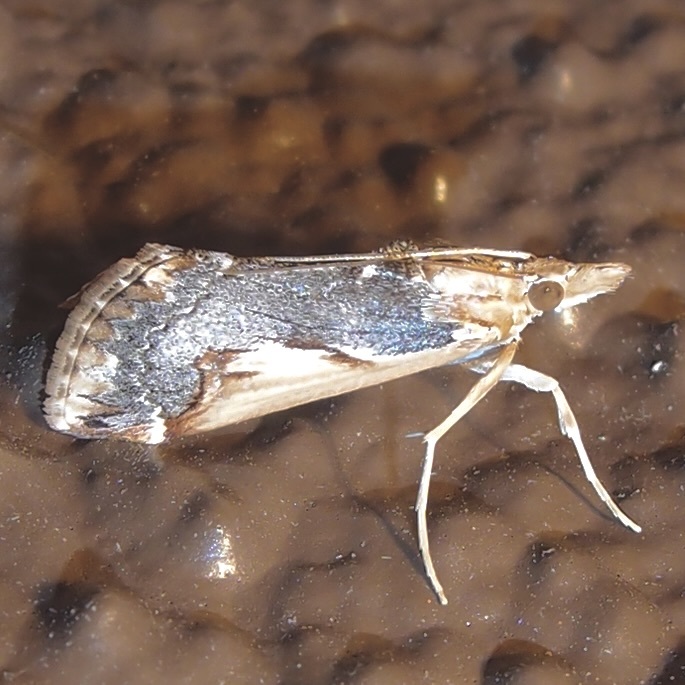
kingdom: Animalia
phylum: Arthropoda
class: Insecta
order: Lepidoptera
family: Crambidae
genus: Loxostege
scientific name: Loxostege albiceralis
